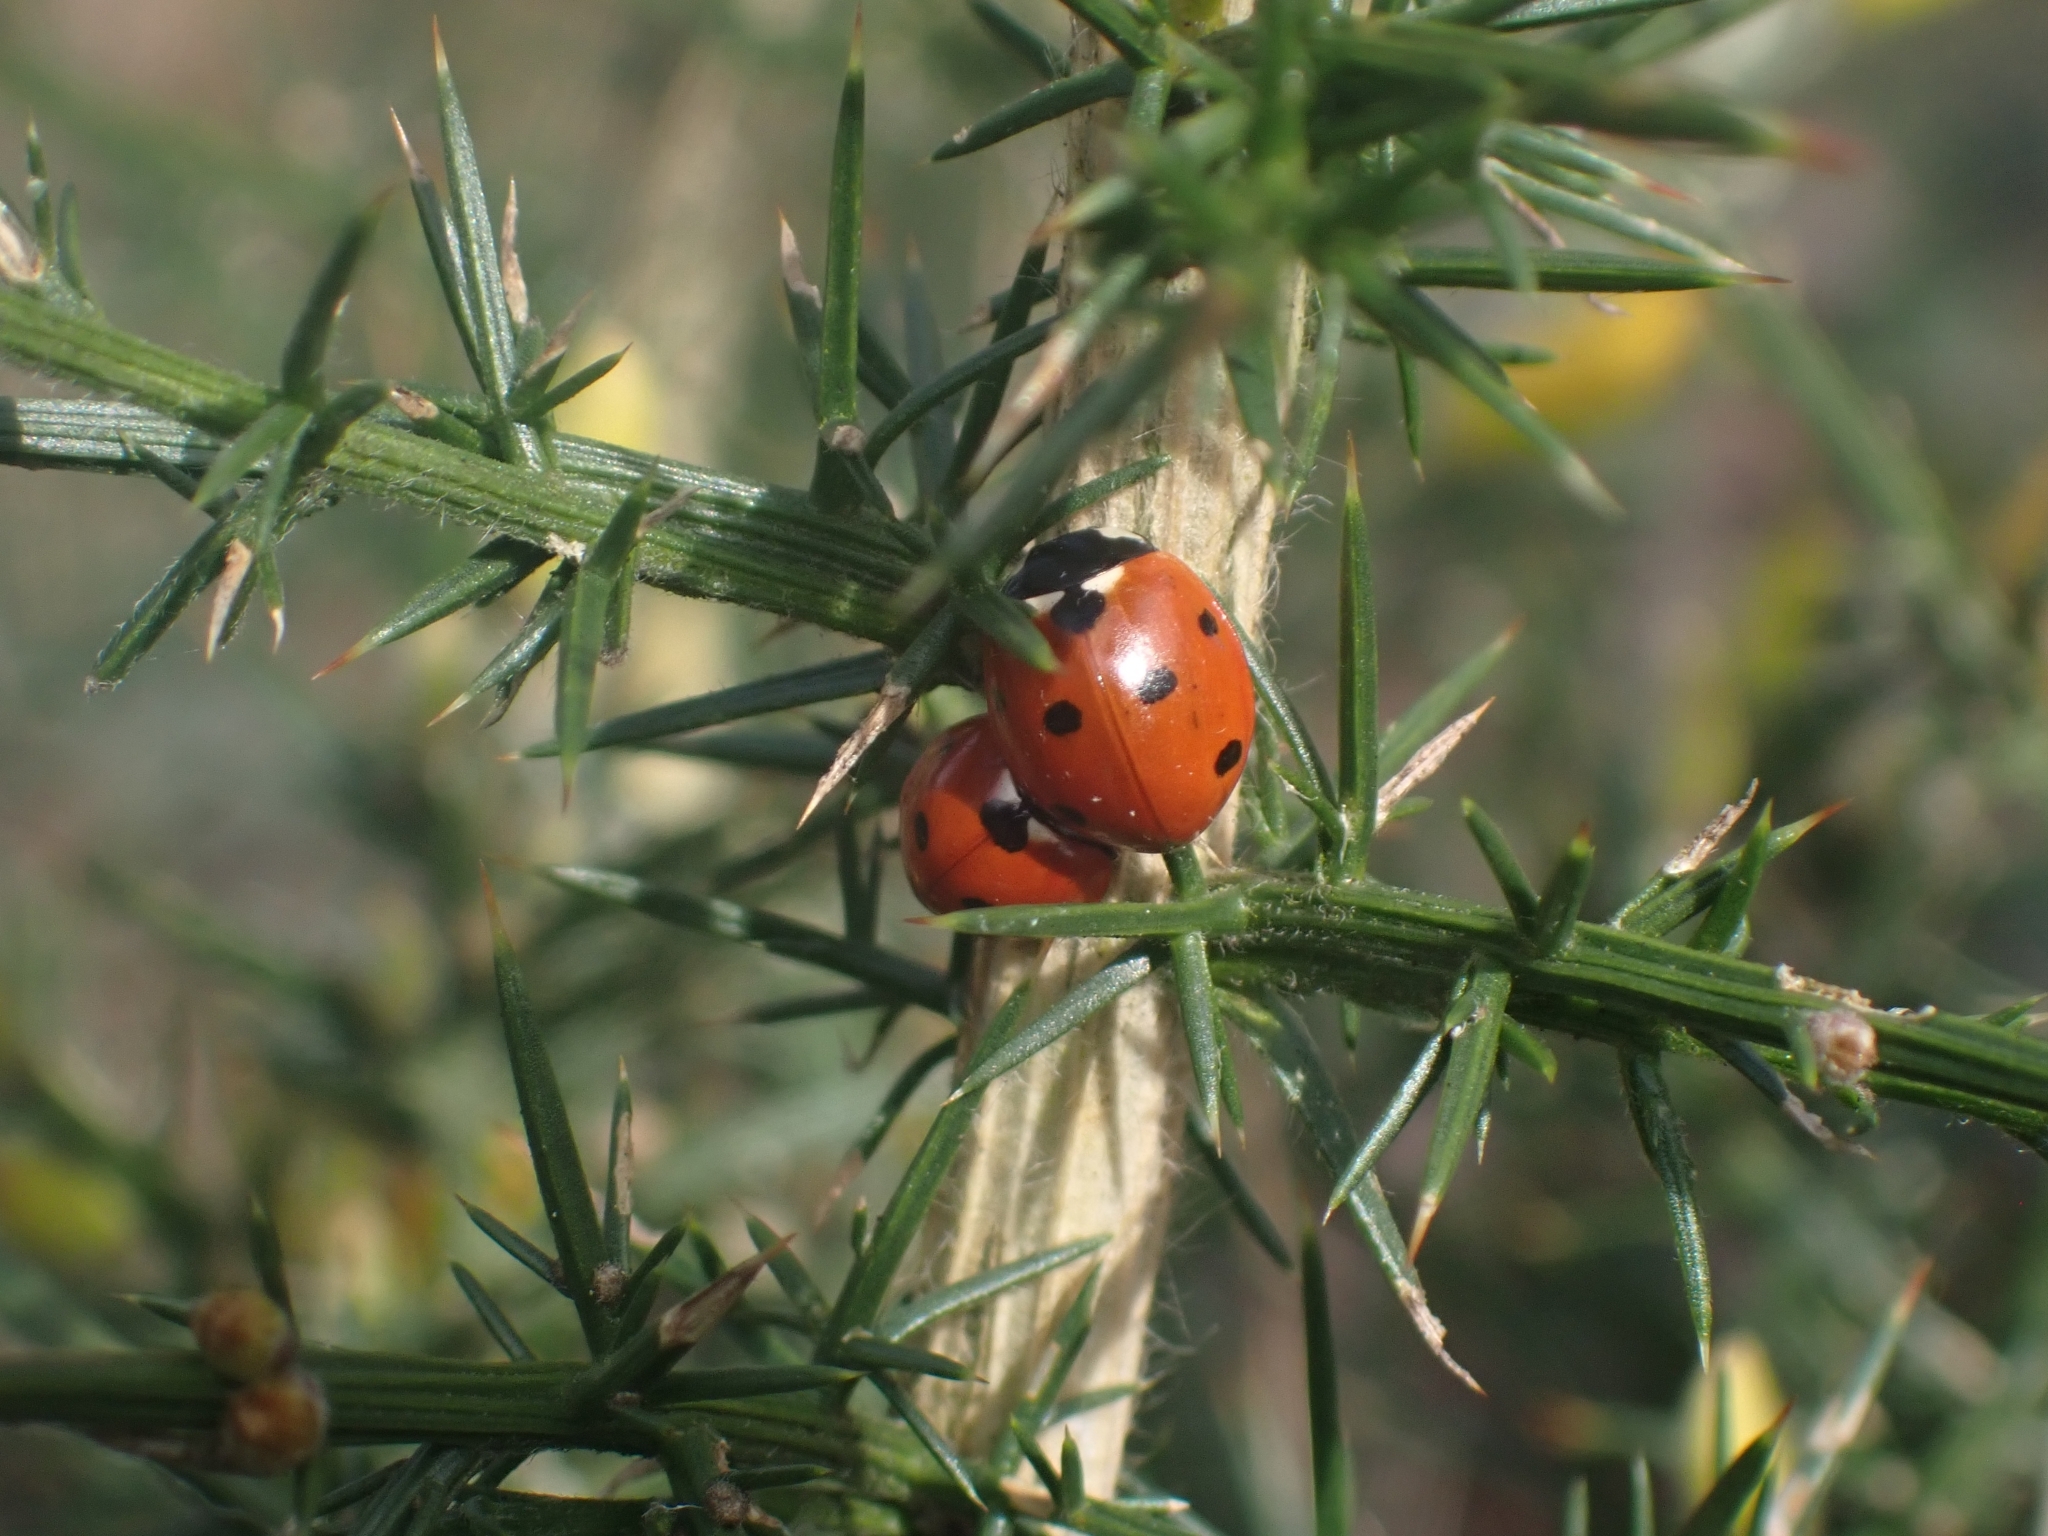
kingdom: Animalia
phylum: Arthropoda
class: Insecta
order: Coleoptera
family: Coccinellidae
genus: Coccinella
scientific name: Coccinella septempunctata
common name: Sevenspotted lady beetle
